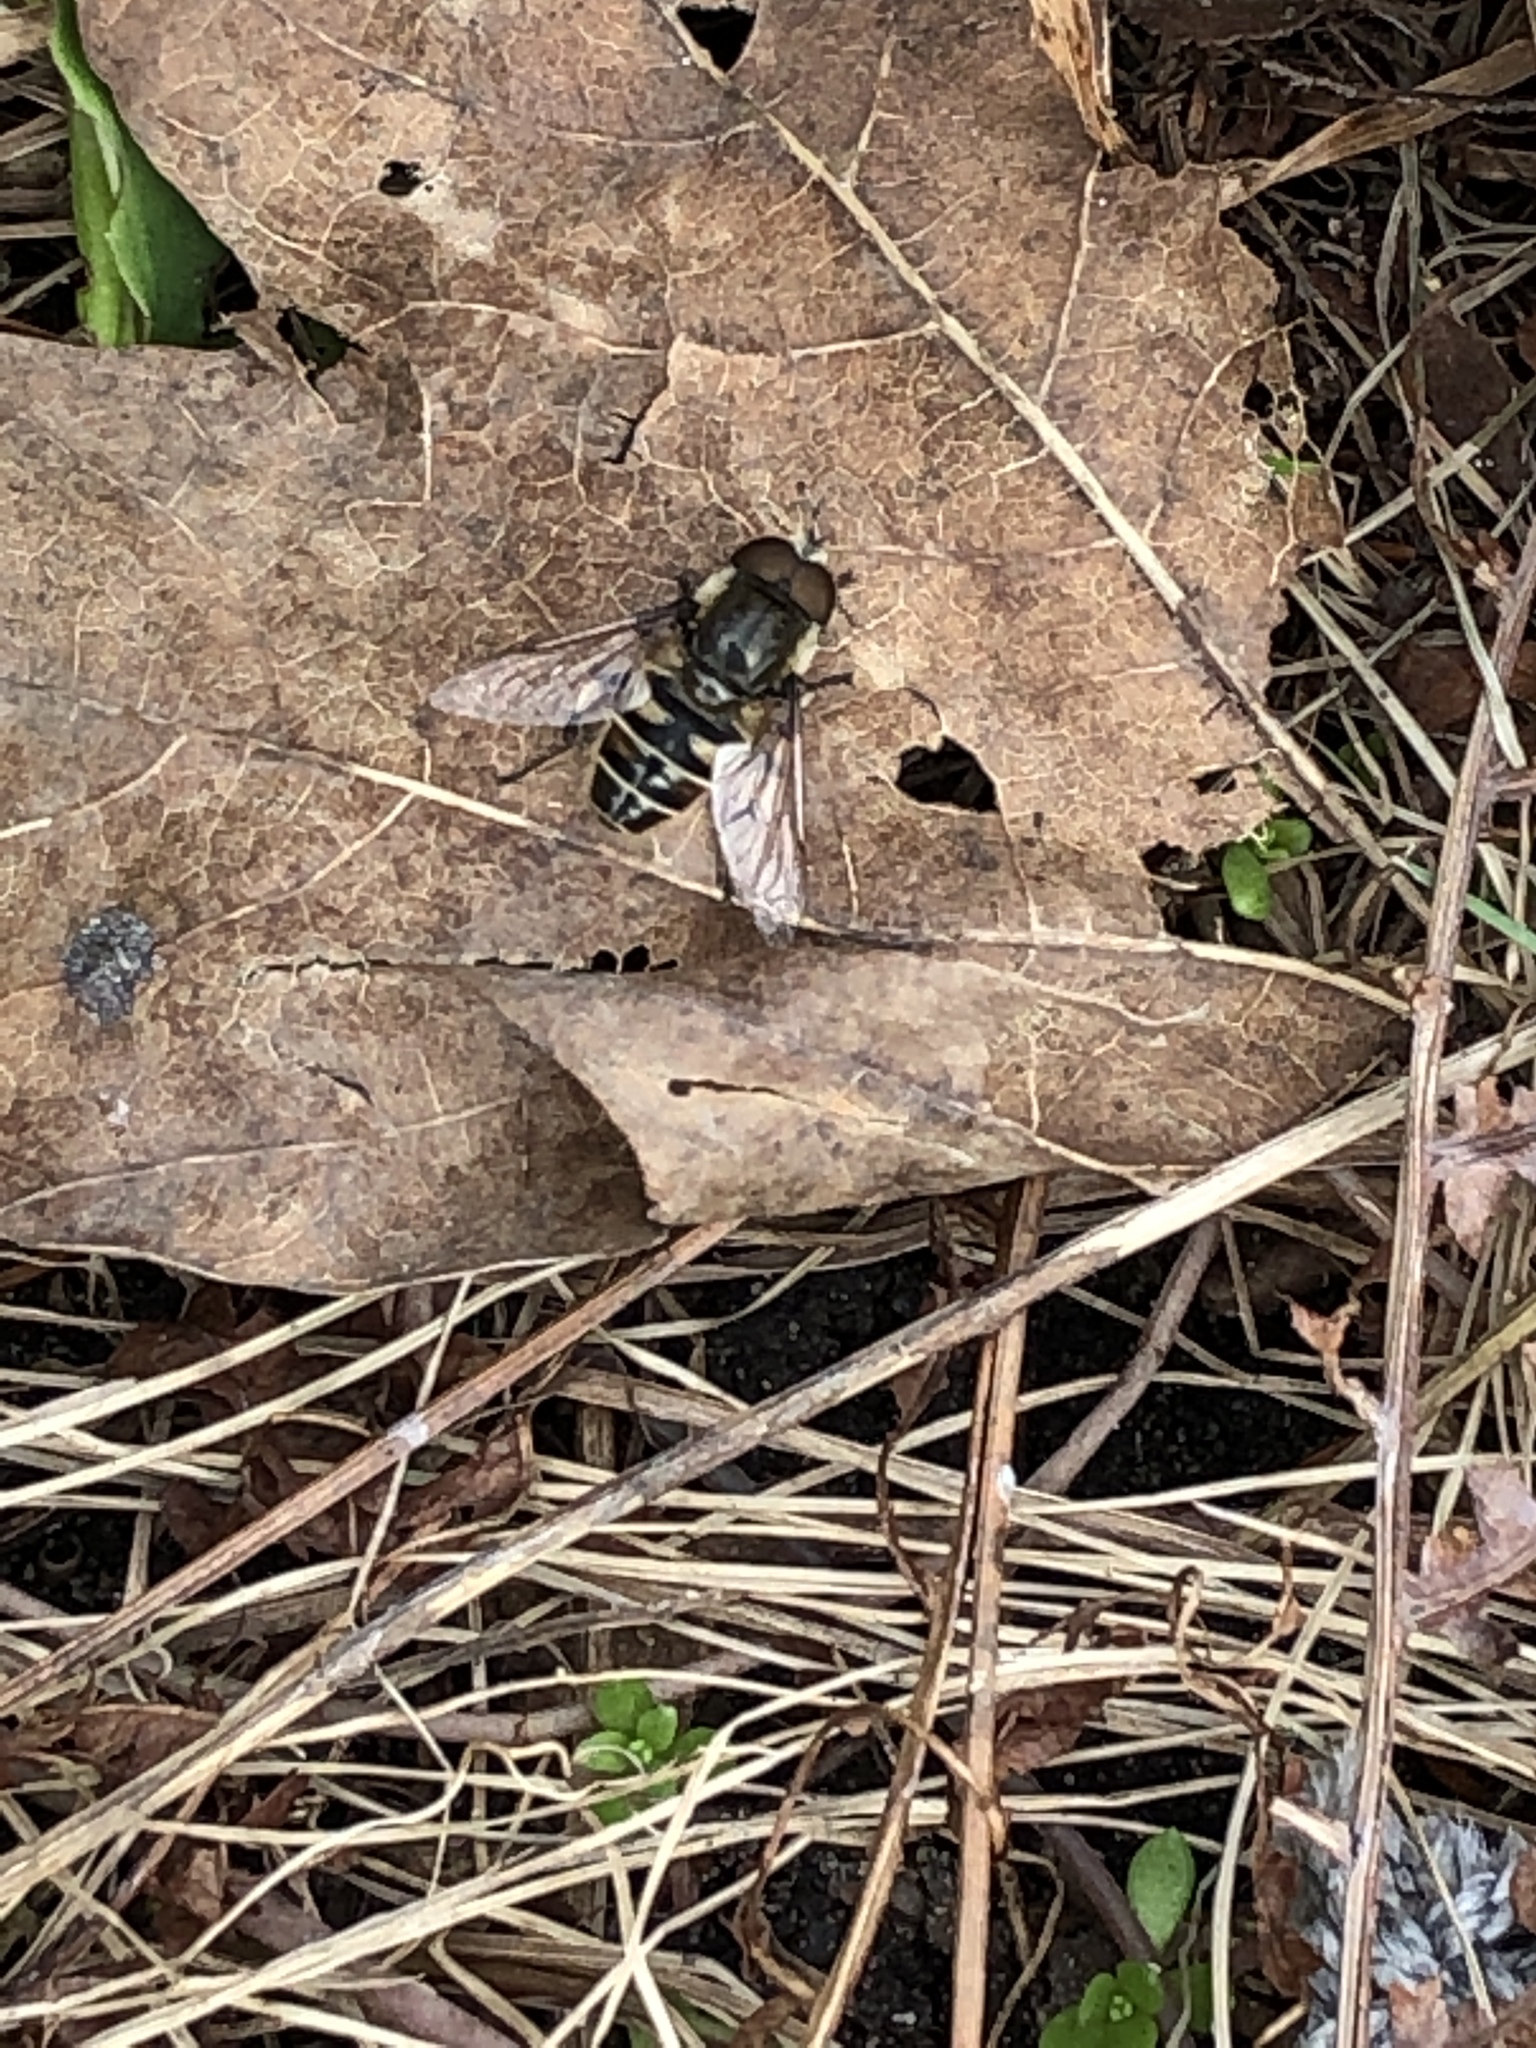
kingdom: Animalia
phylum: Arthropoda
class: Insecta
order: Diptera
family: Syrphidae
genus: Eristalis
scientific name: Eristalis dimidiata
